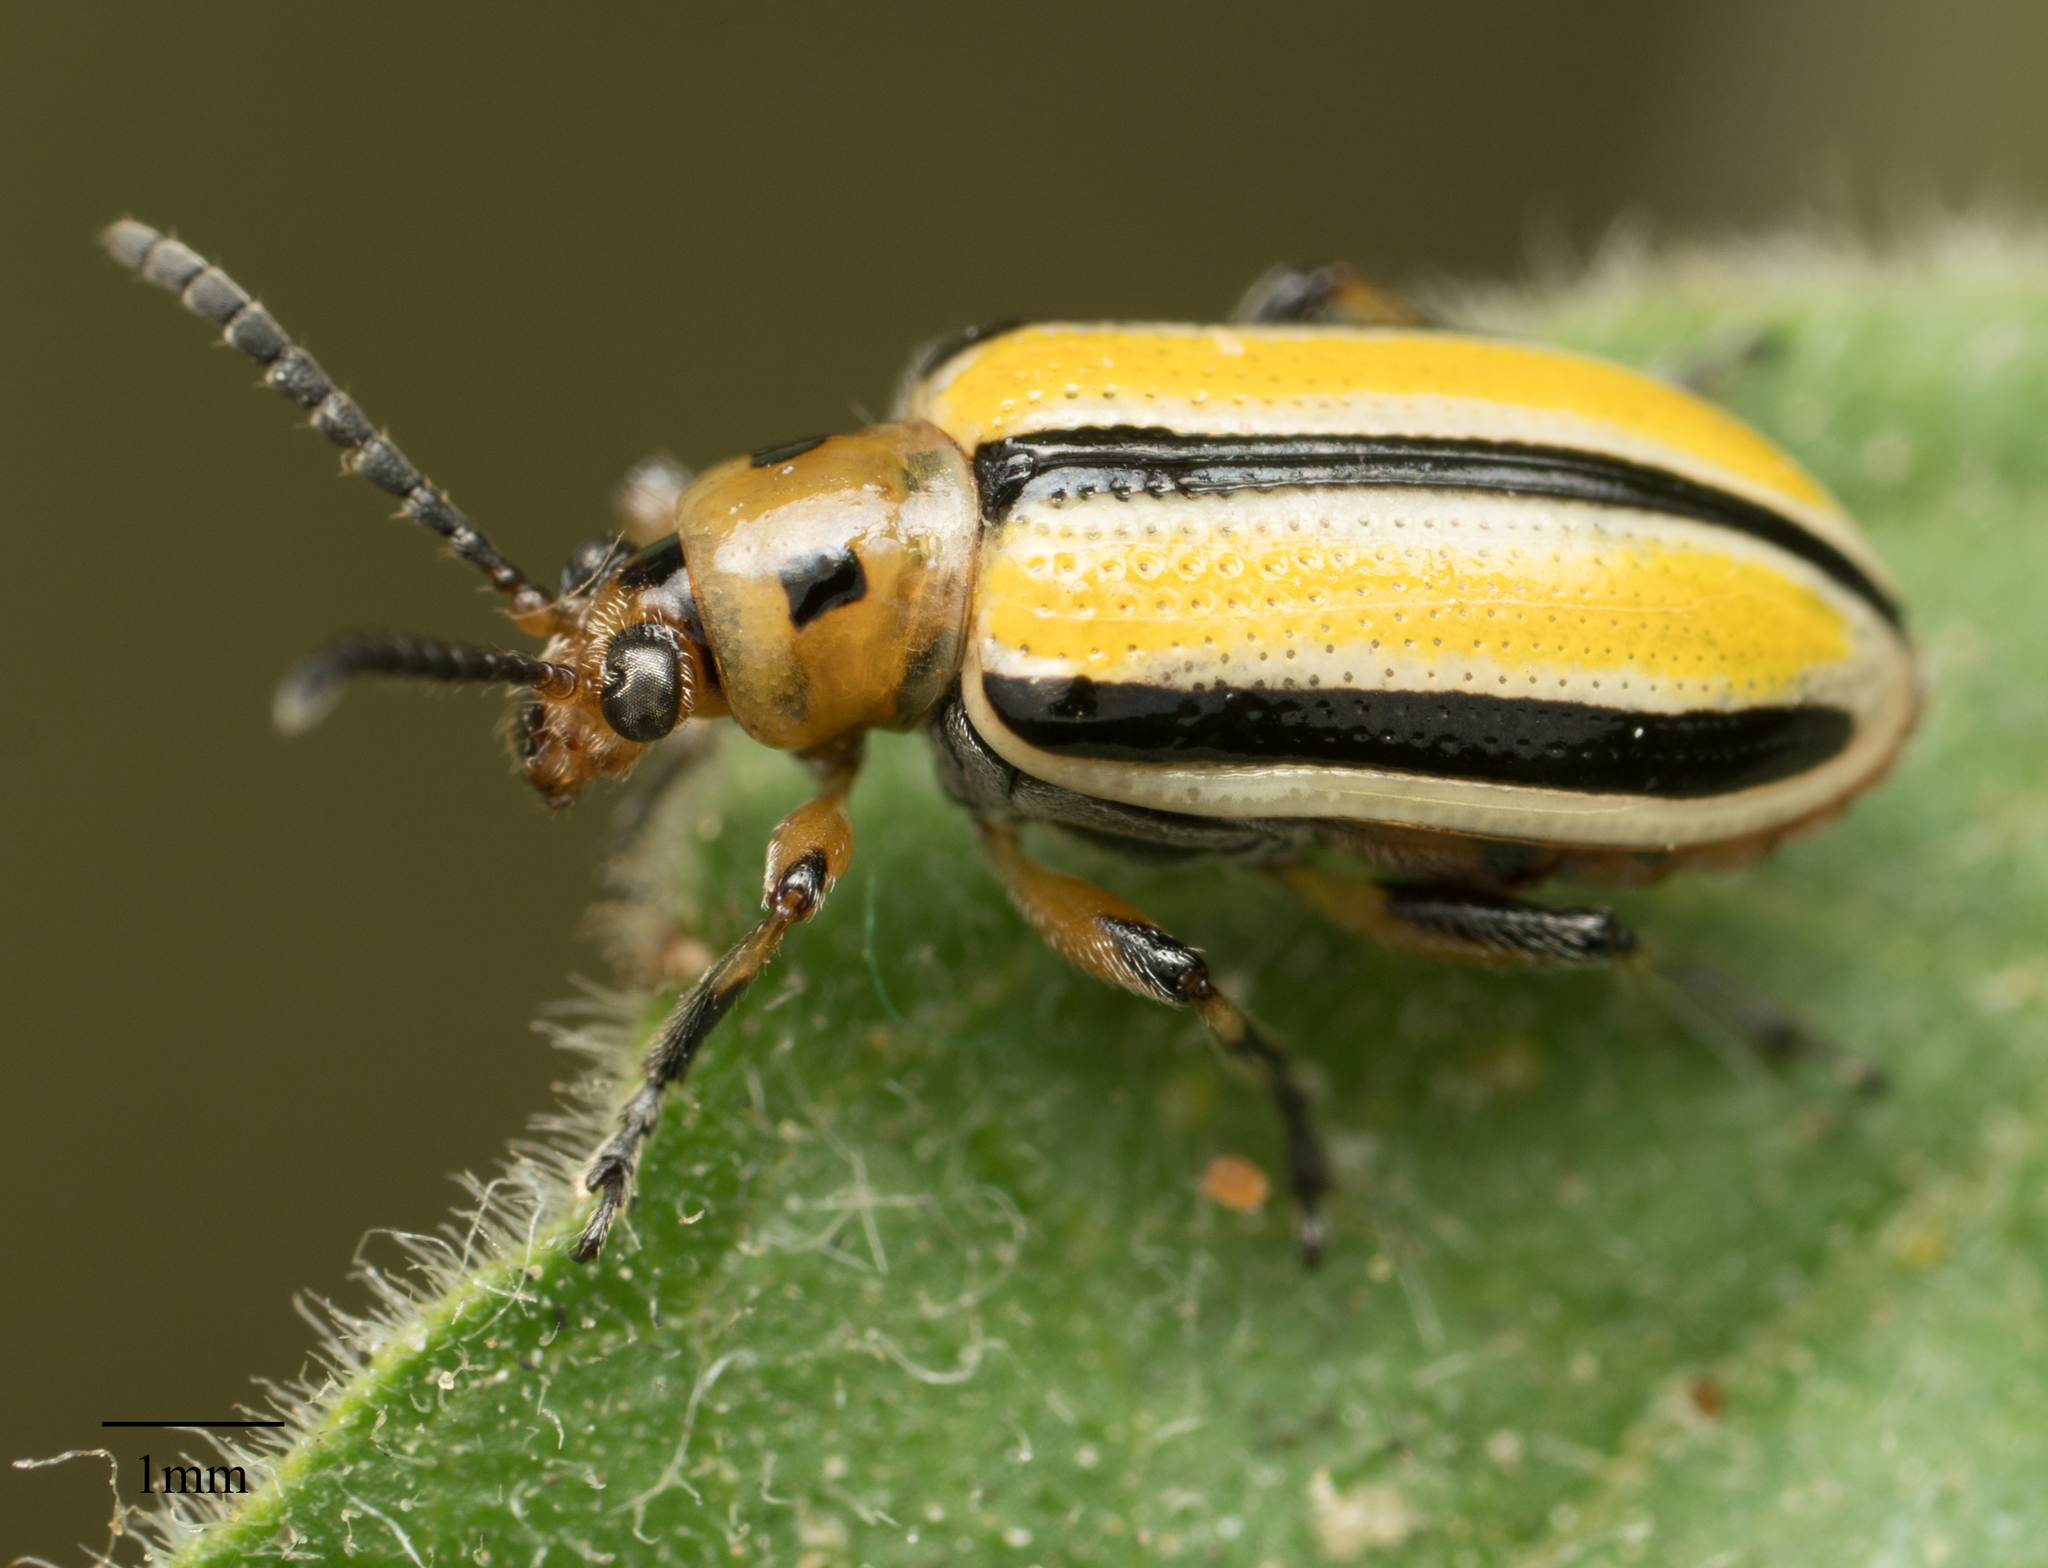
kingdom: Animalia
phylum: Arthropoda
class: Insecta
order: Coleoptera
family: Chrysomelidae
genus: Lema
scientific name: Lema daturaphila
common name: Leaf beetle
